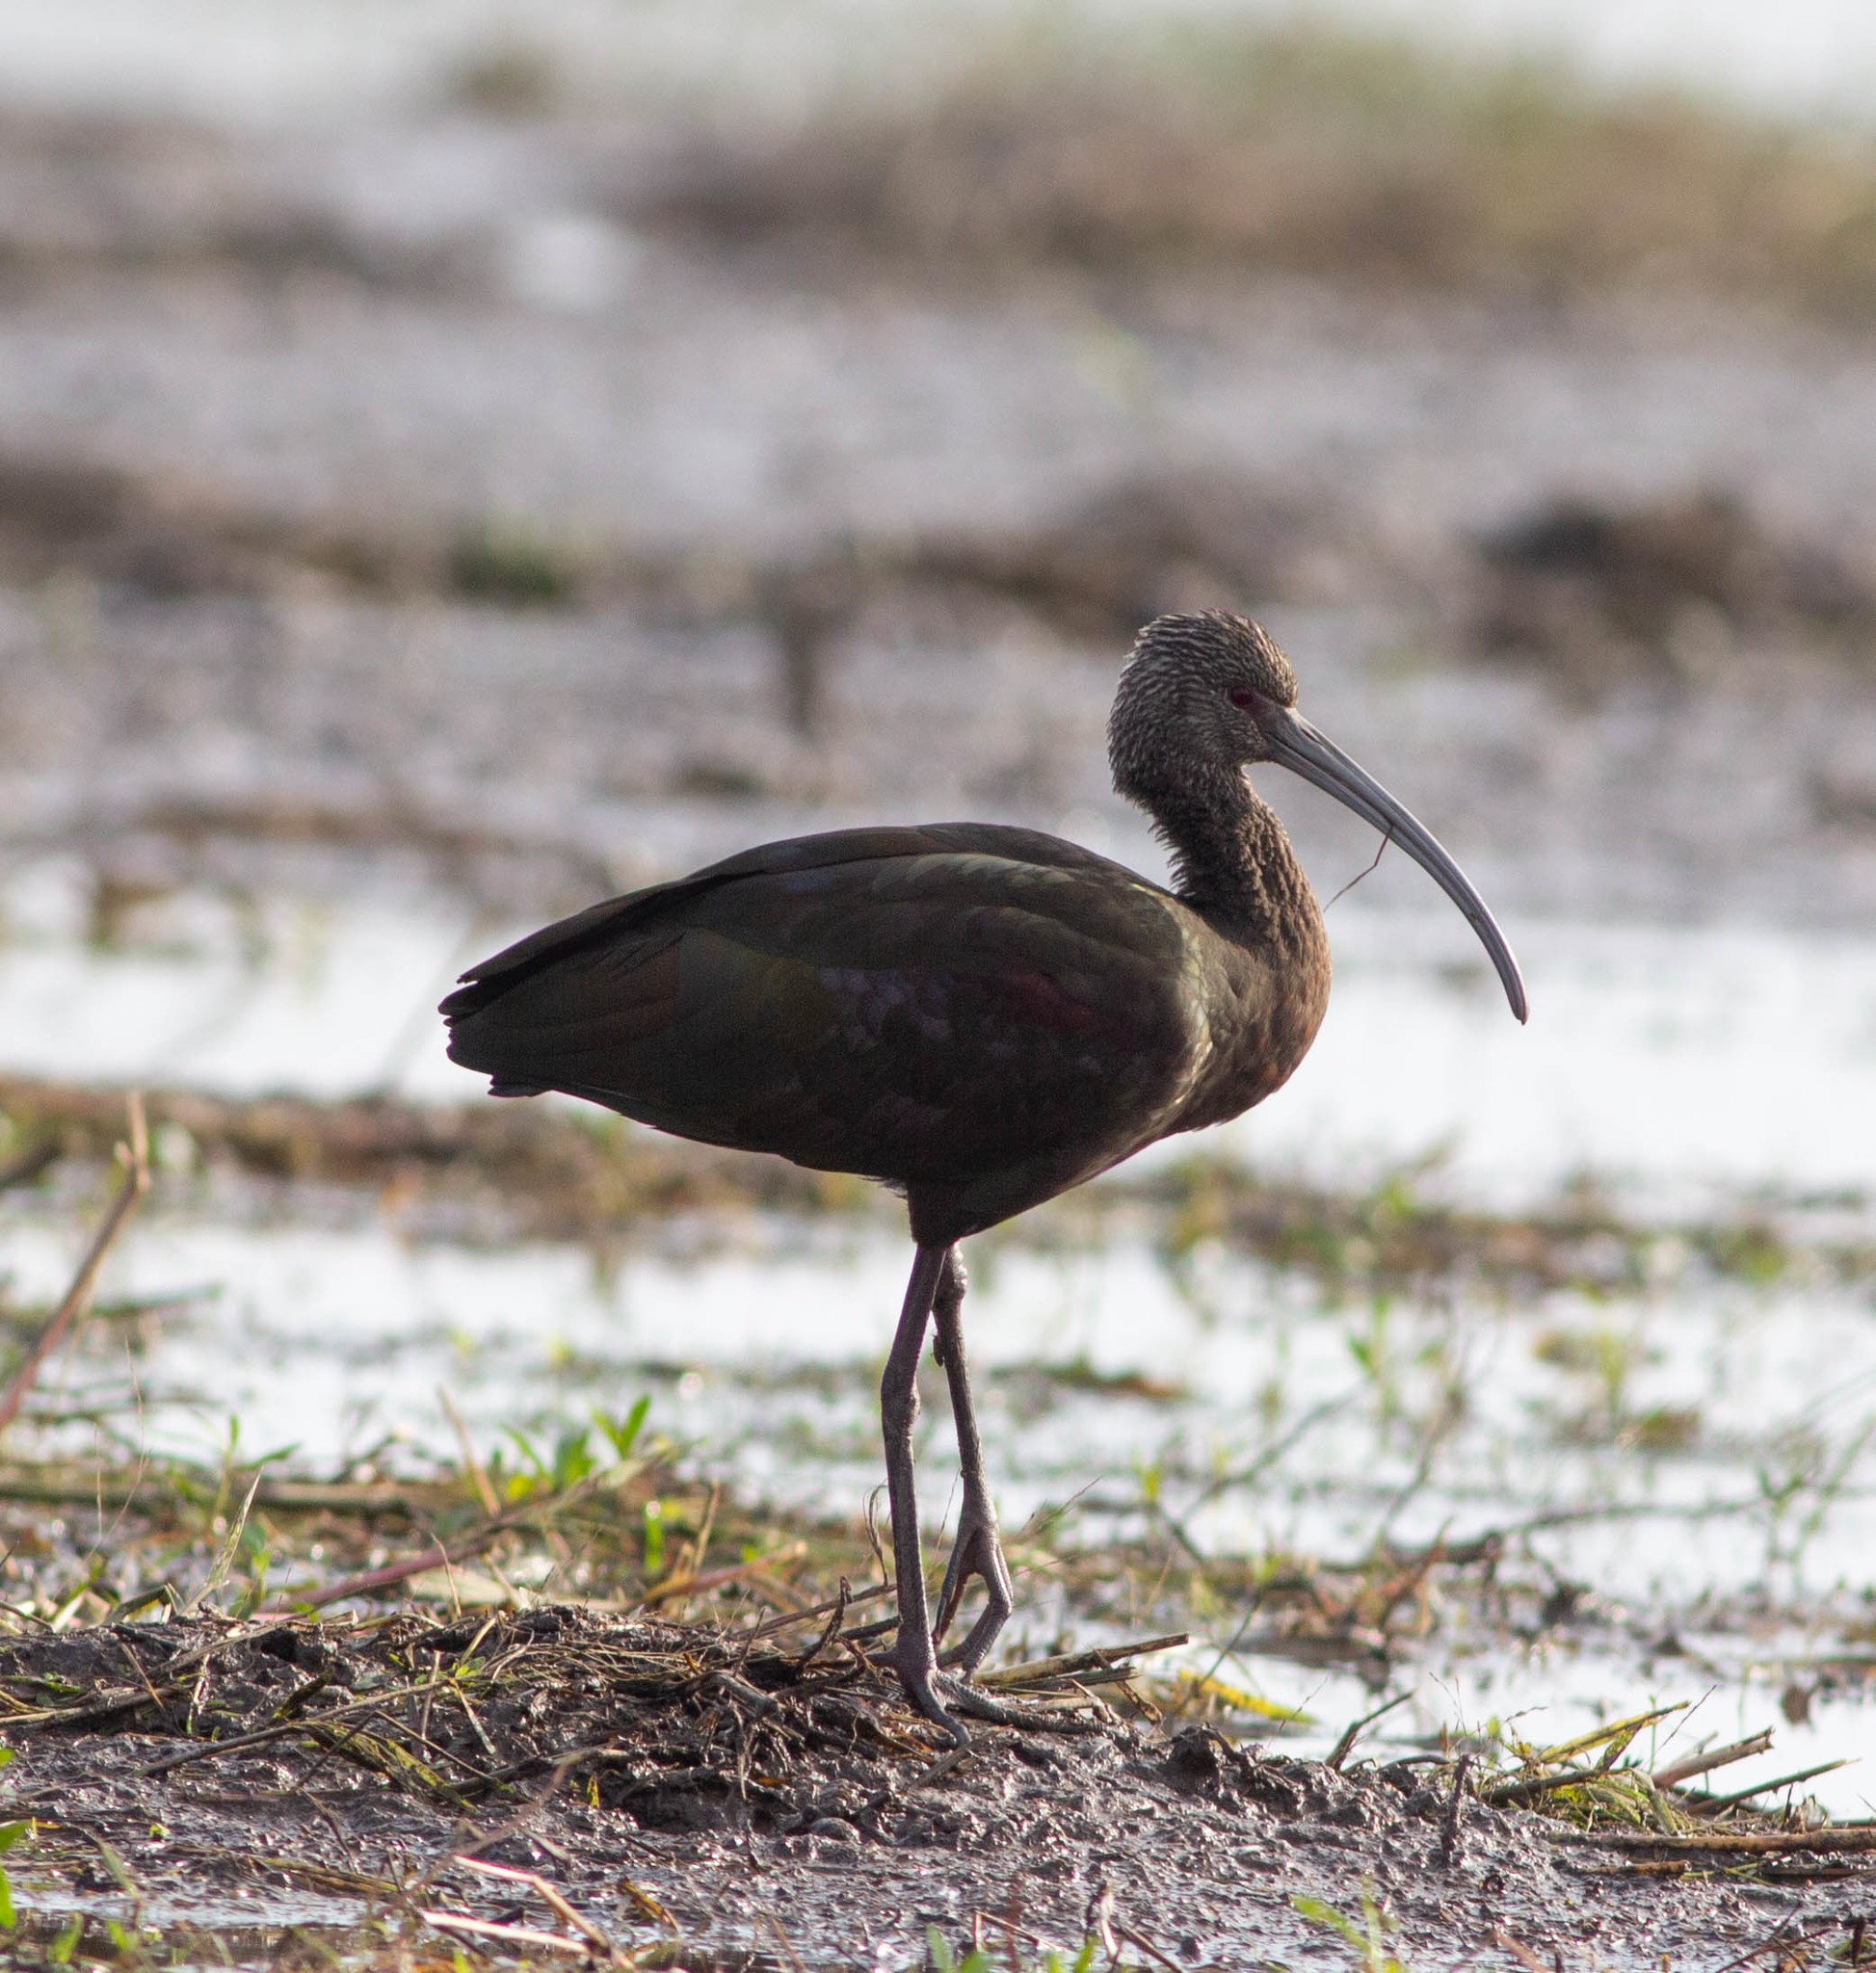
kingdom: Animalia
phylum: Chordata
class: Aves
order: Pelecaniformes
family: Threskiornithidae
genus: Plegadis
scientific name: Plegadis chihi
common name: White-faced ibis
